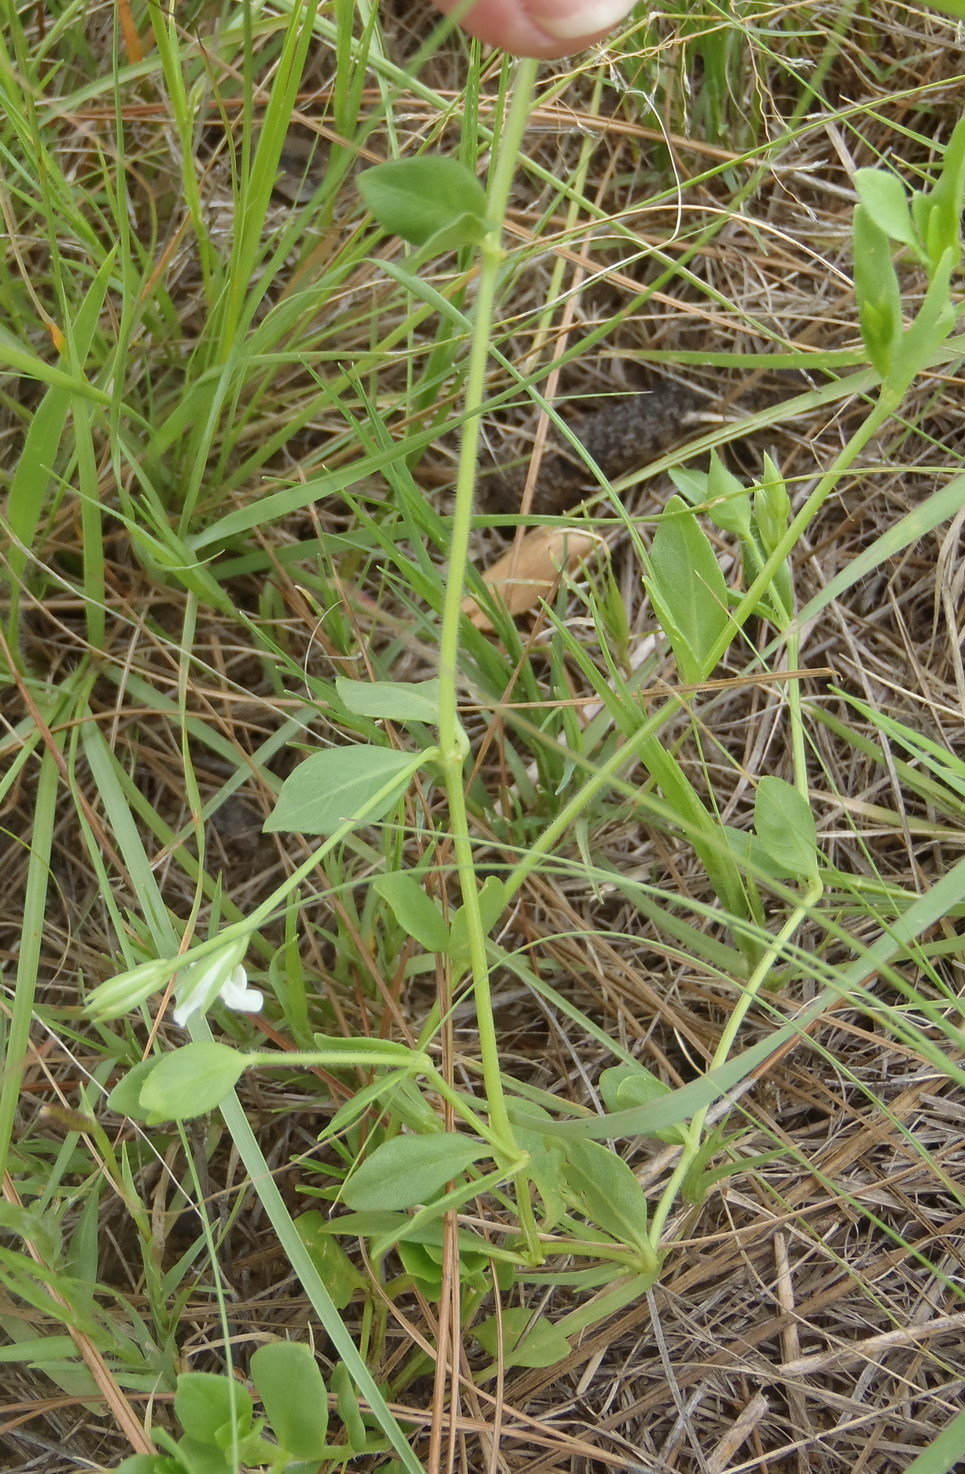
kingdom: Plantae
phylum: Tracheophyta
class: Magnoliopsida
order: Lamiales
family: Acanthaceae
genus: Justicia
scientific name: Justicia anagalloides
